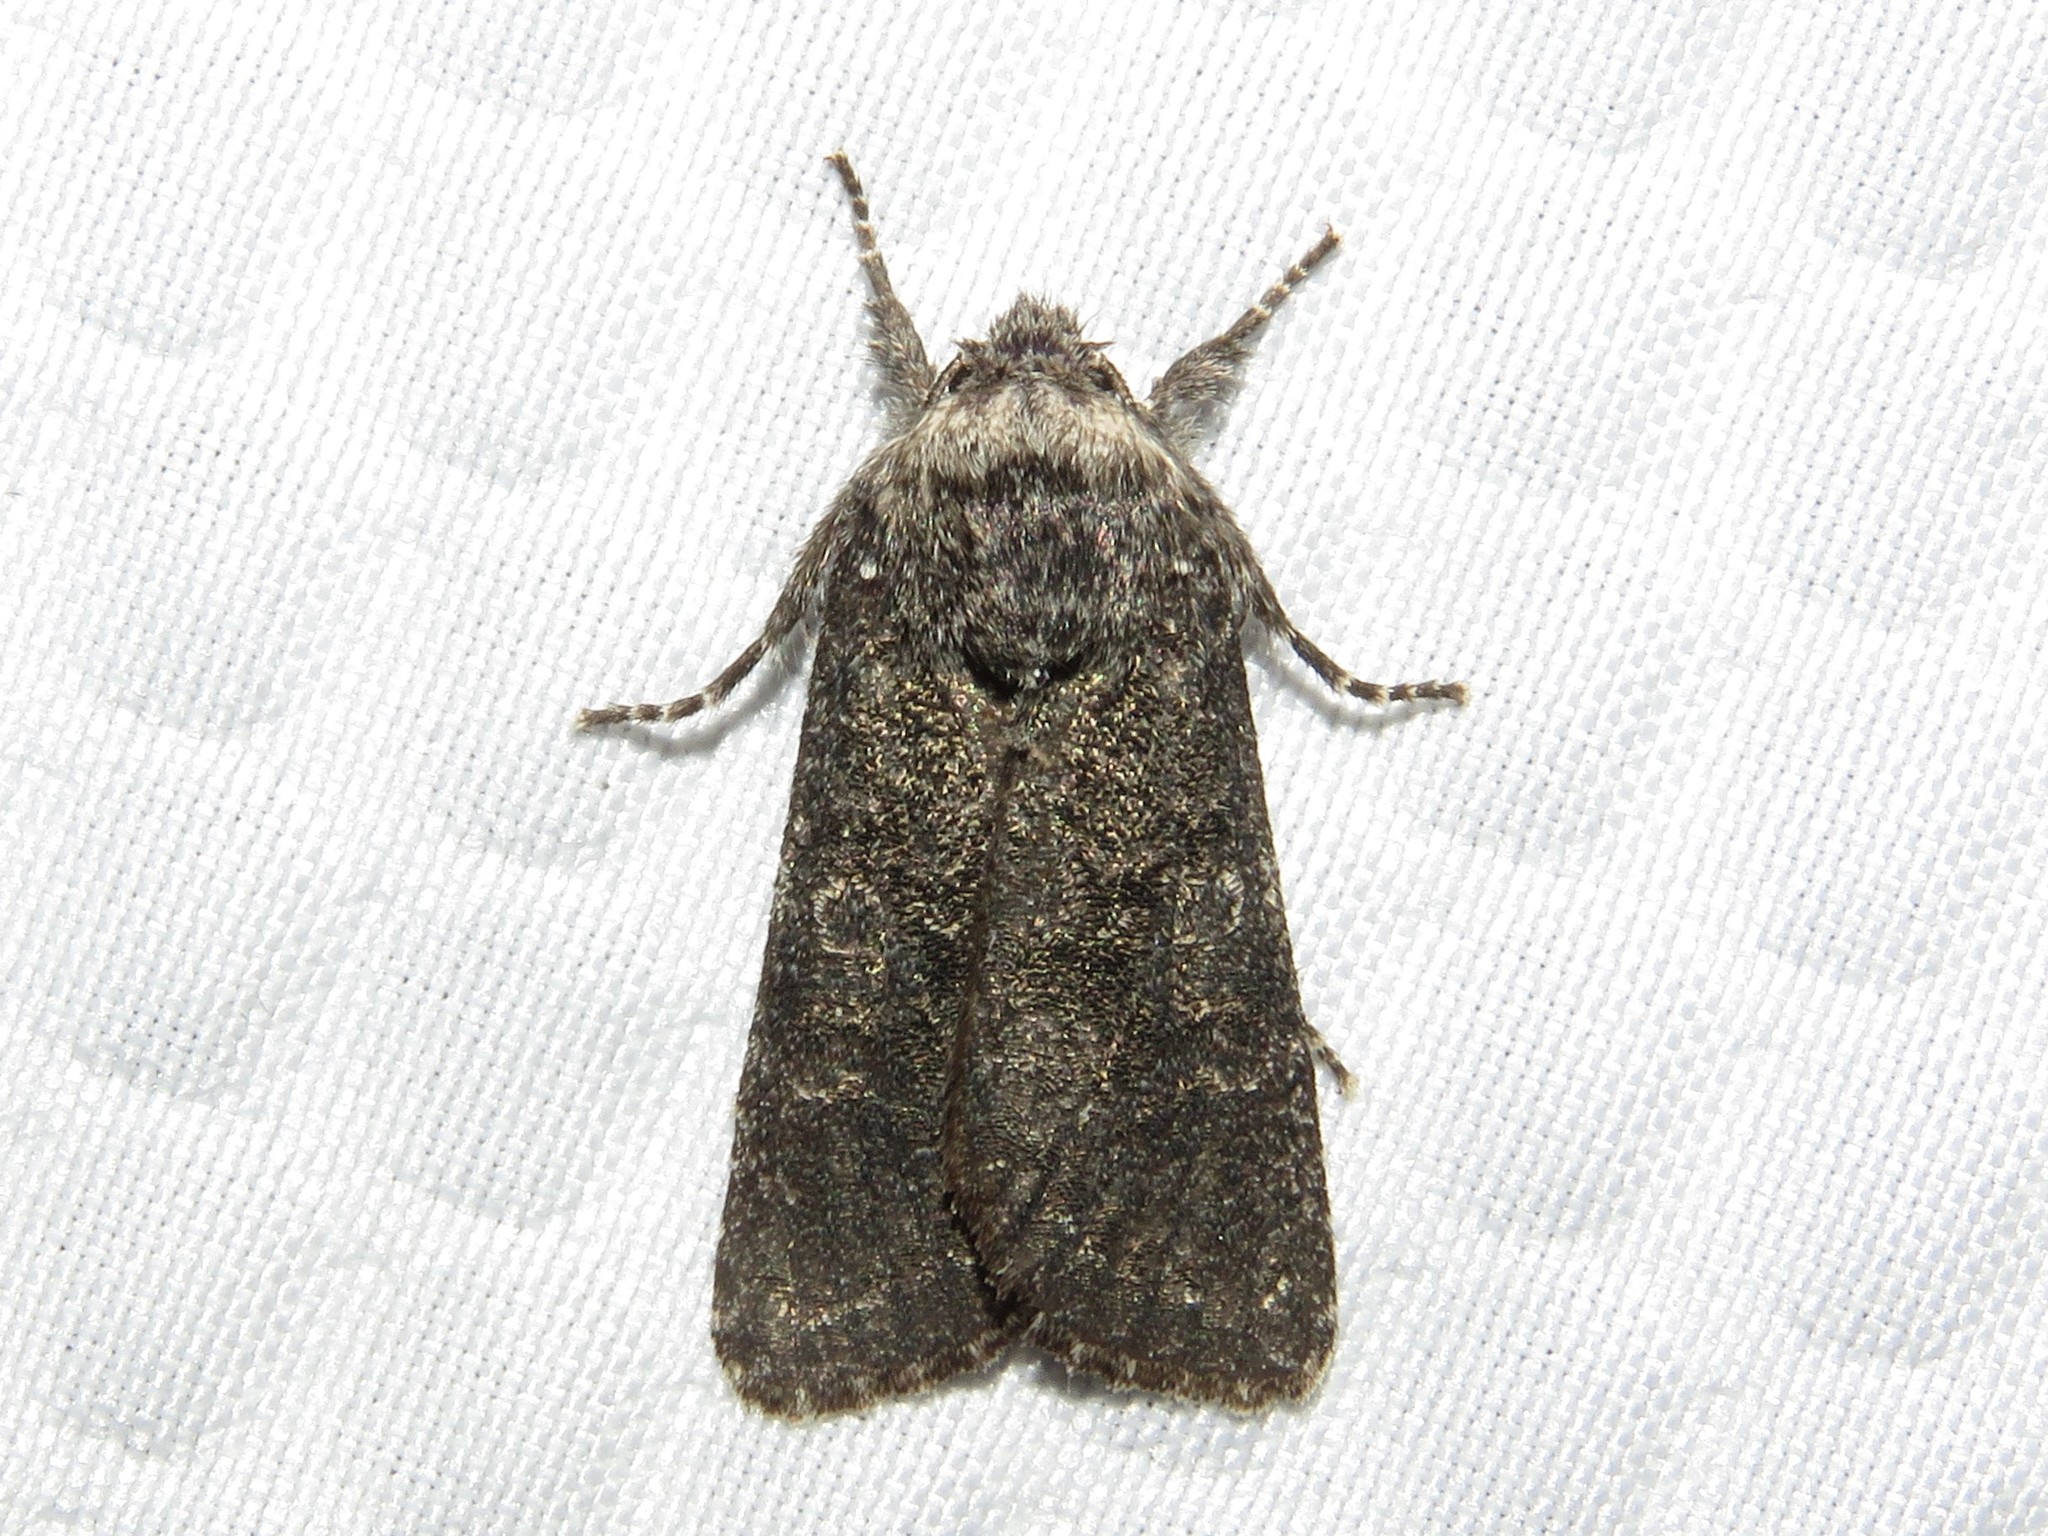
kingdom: Animalia
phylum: Arthropoda
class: Insecta
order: Lepidoptera
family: Noctuidae
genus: Egira
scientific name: Egira dolosa
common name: Lined black aspen cat.
